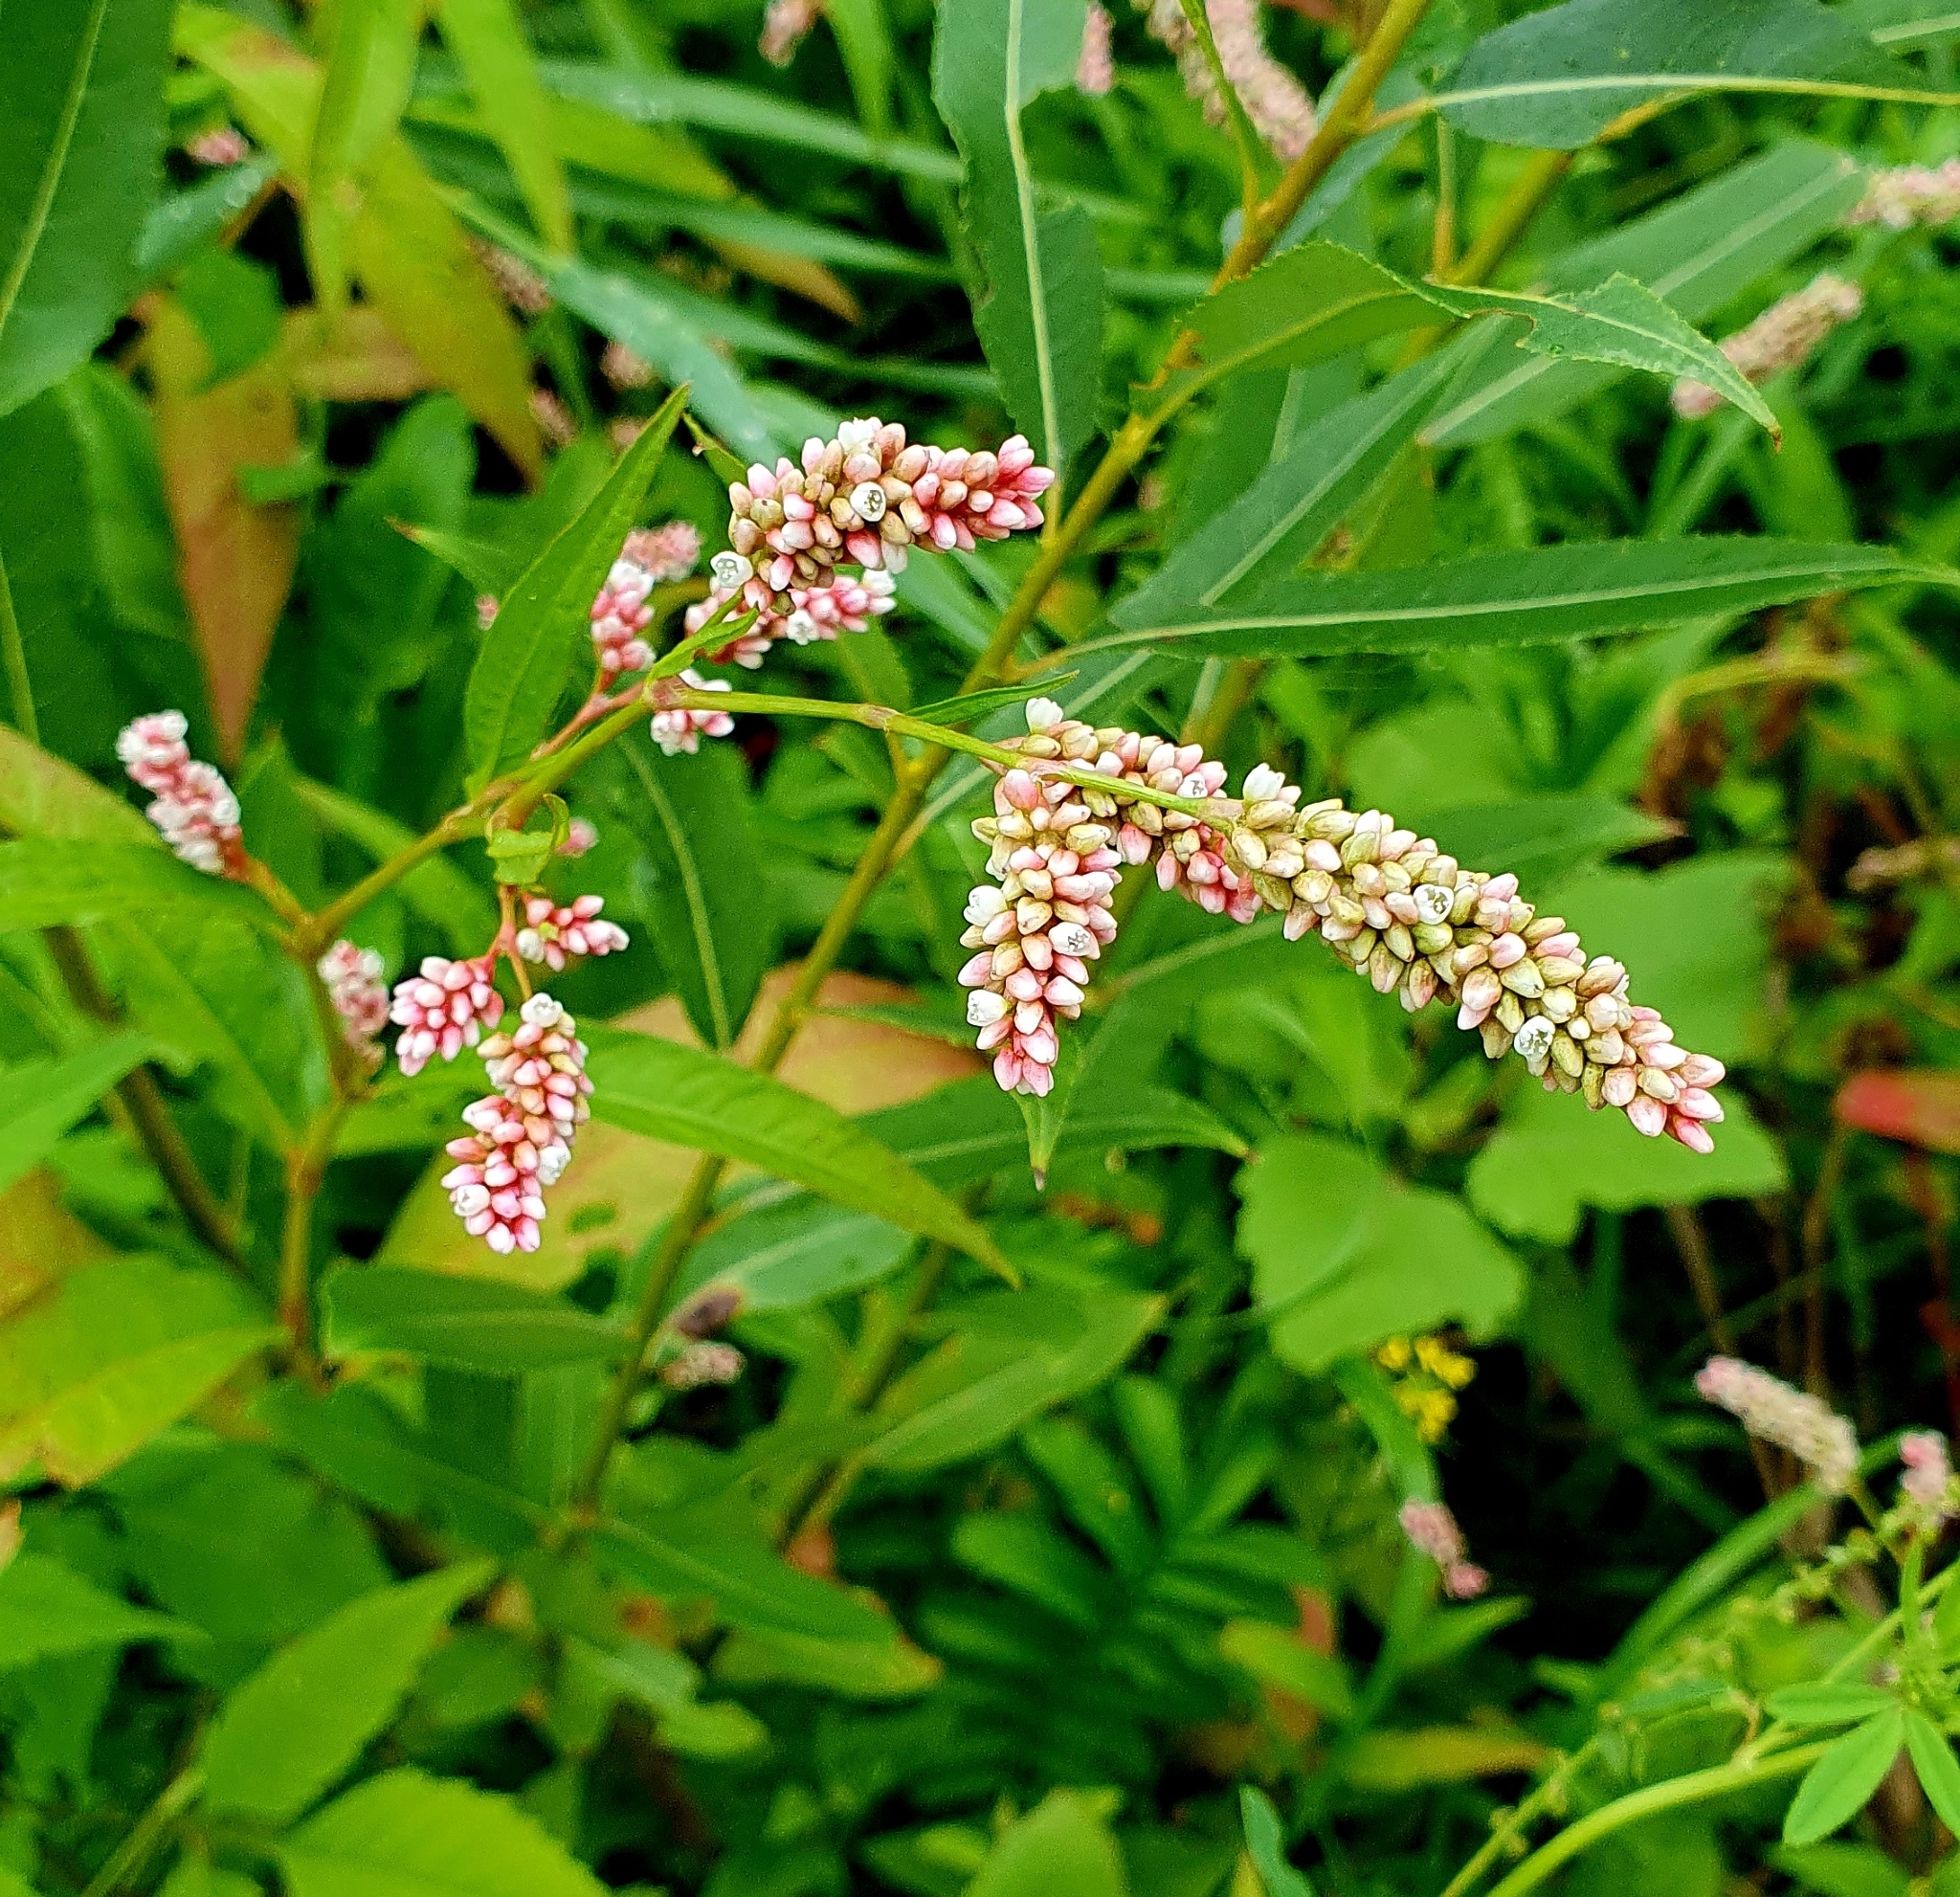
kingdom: Plantae
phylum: Tracheophyta
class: Magnoliopsida
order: Caryophyllales
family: Polygonaceae
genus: Persicaria
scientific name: Persicaria lapathifolia
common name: Curlytop knotweed
